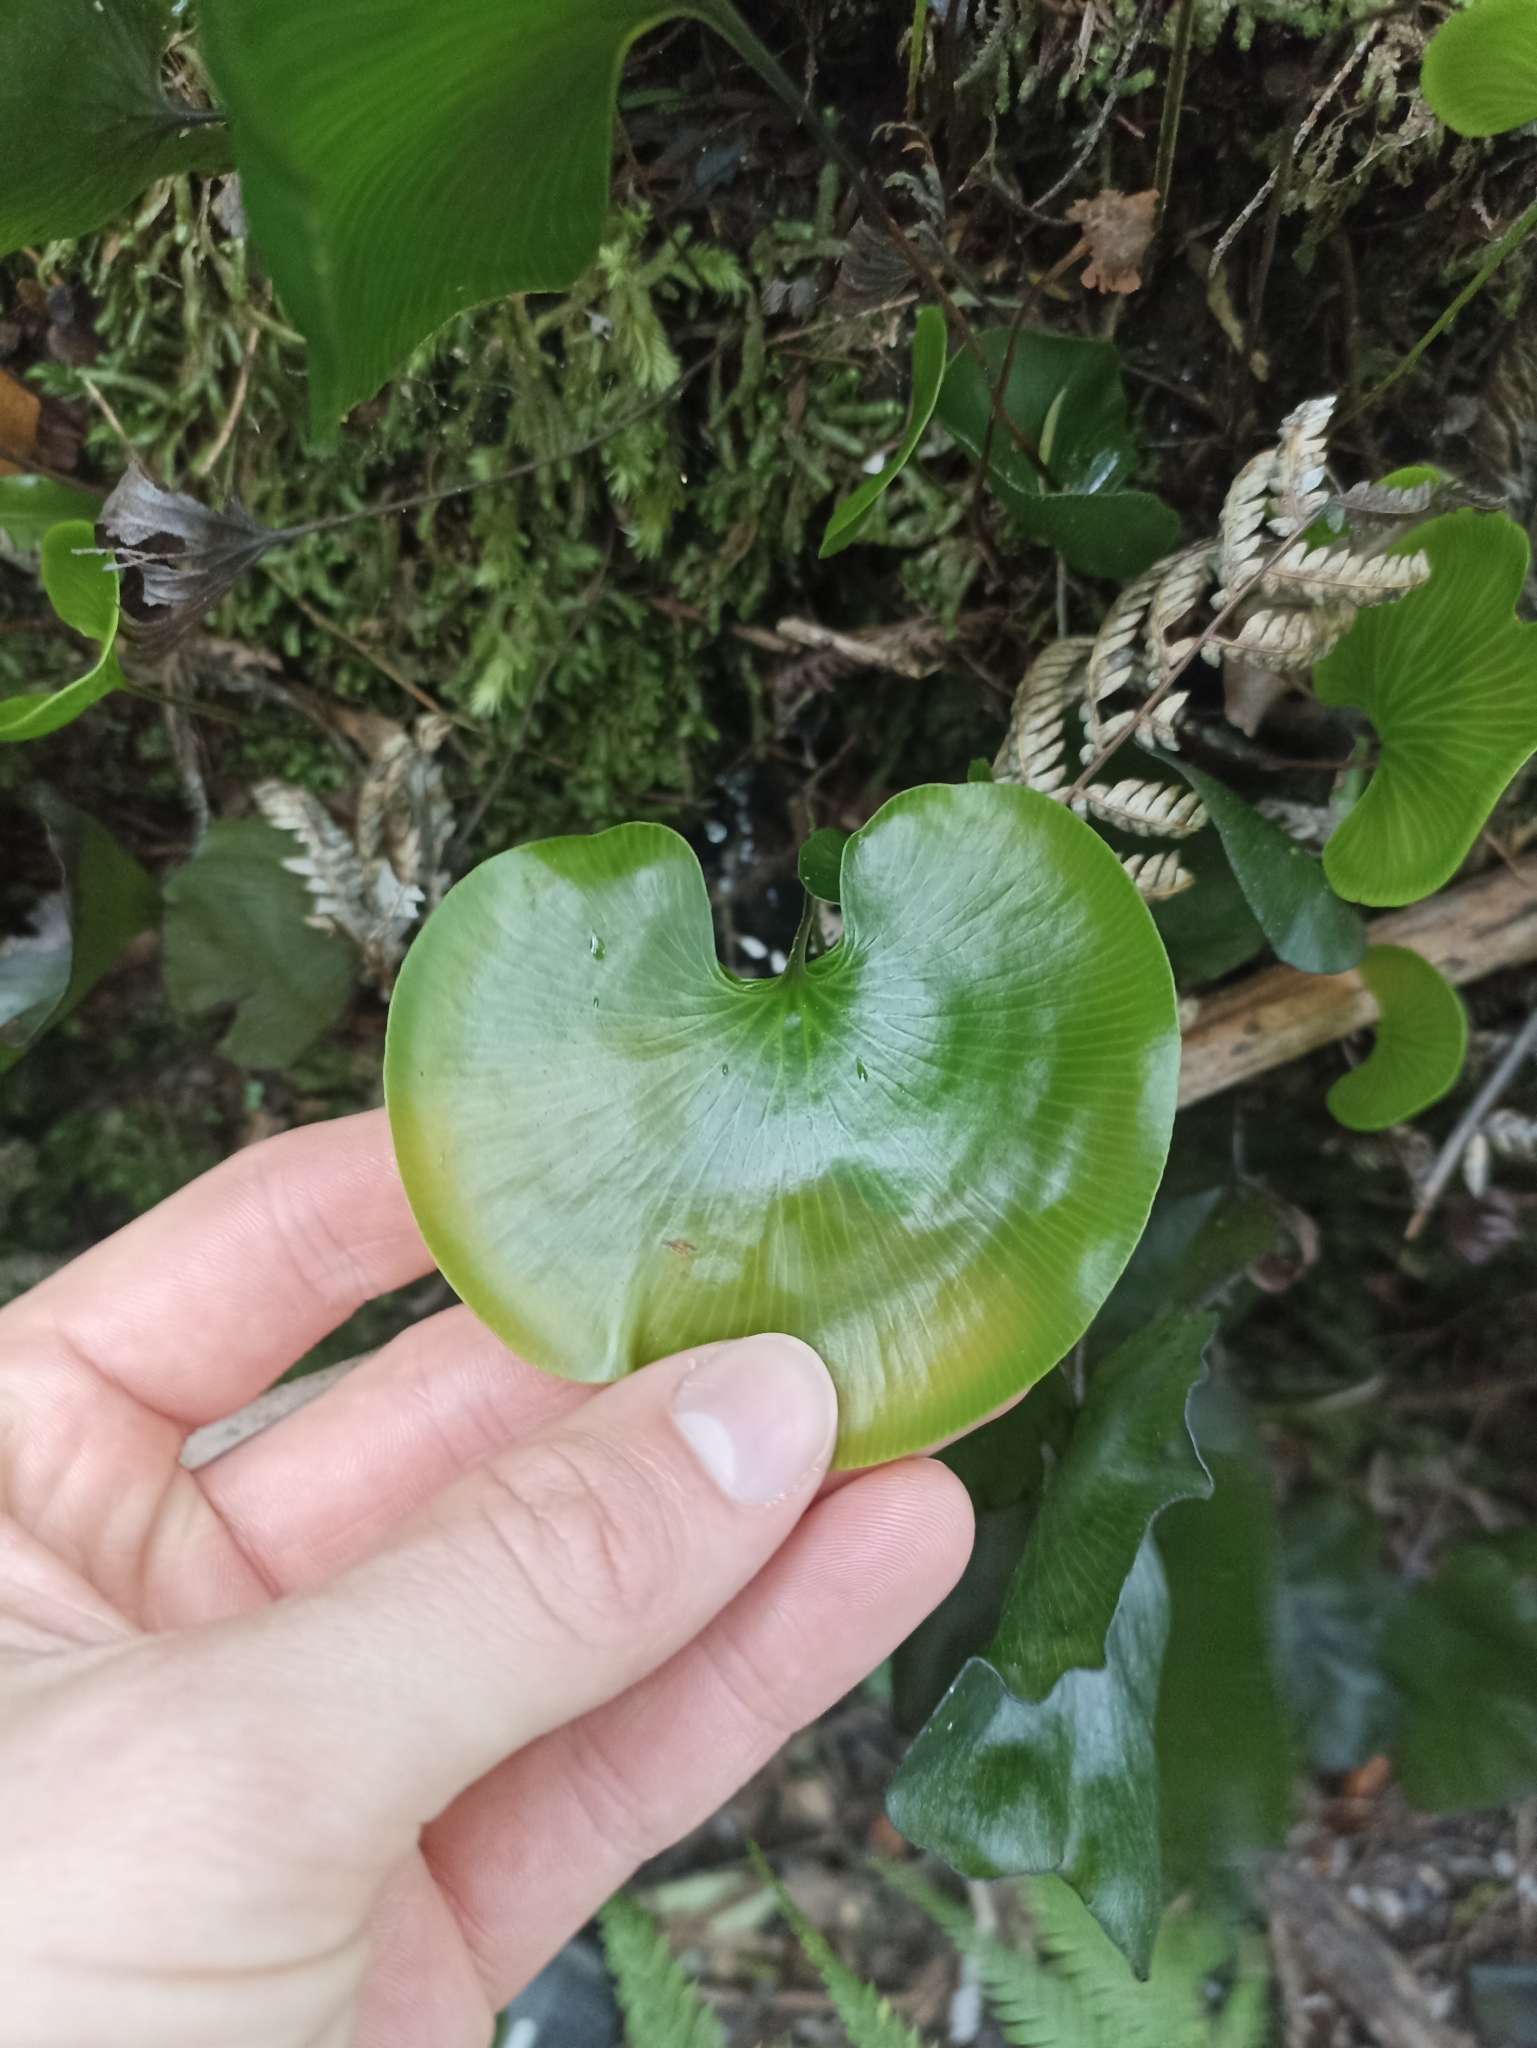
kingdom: Plantae
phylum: Tracheophyta
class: Polypodiopsida
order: Hymenophyllales
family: Hymenophyllaceae
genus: Hymenophyllum
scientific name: Hymenophyllum nephrophyllum
